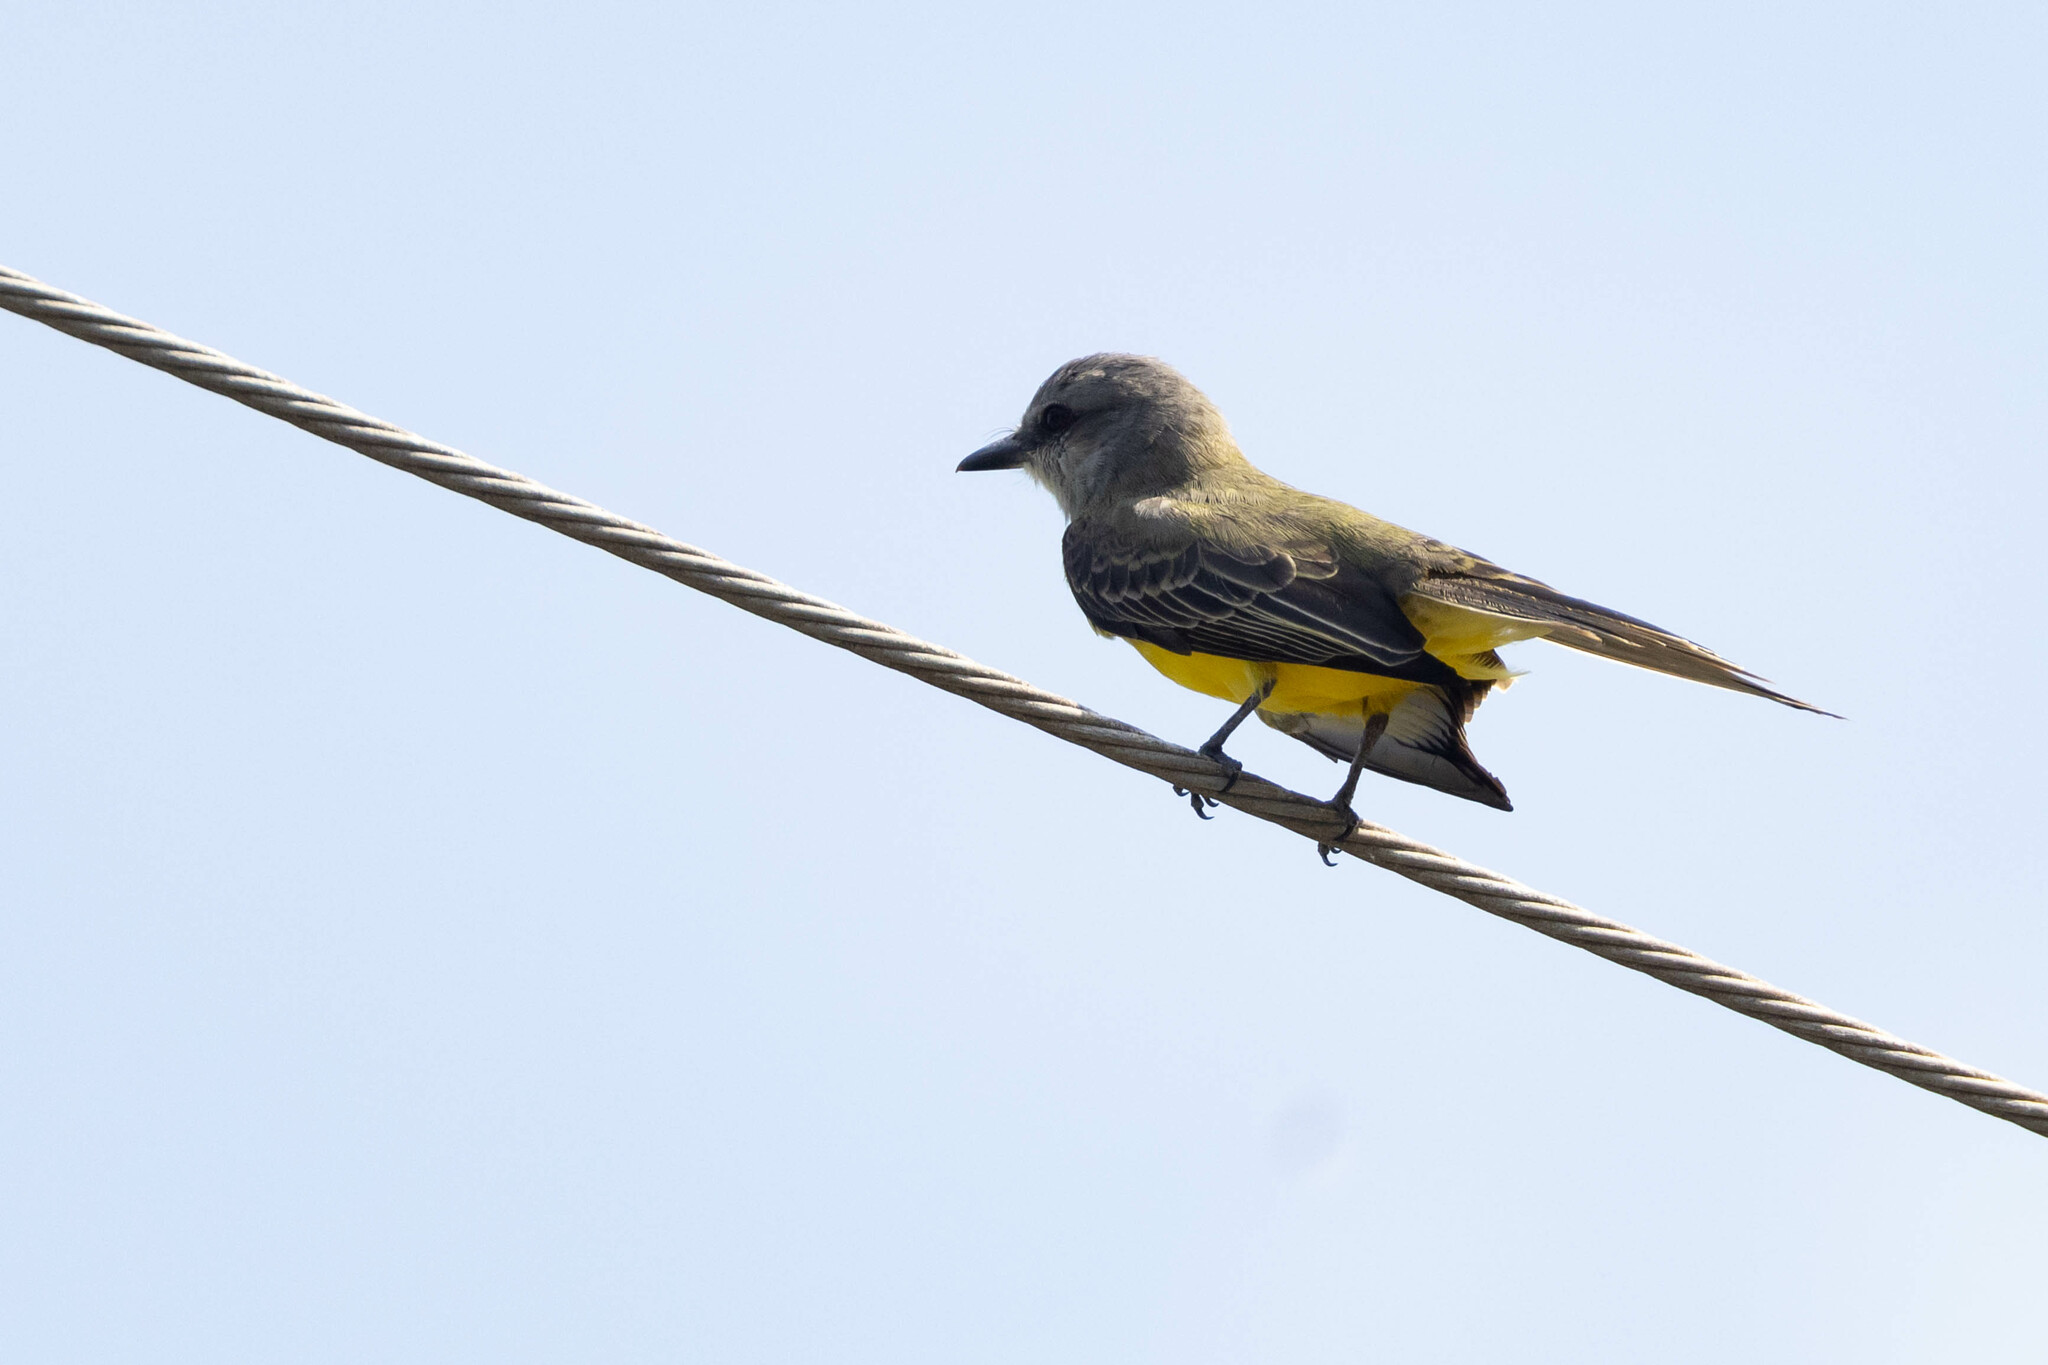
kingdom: Animalia
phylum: Chordata
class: Aves
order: Passeriformes
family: Tyrannidae
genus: Tyrannus
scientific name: Tyrannus melancholicus
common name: Tropical kingbird
